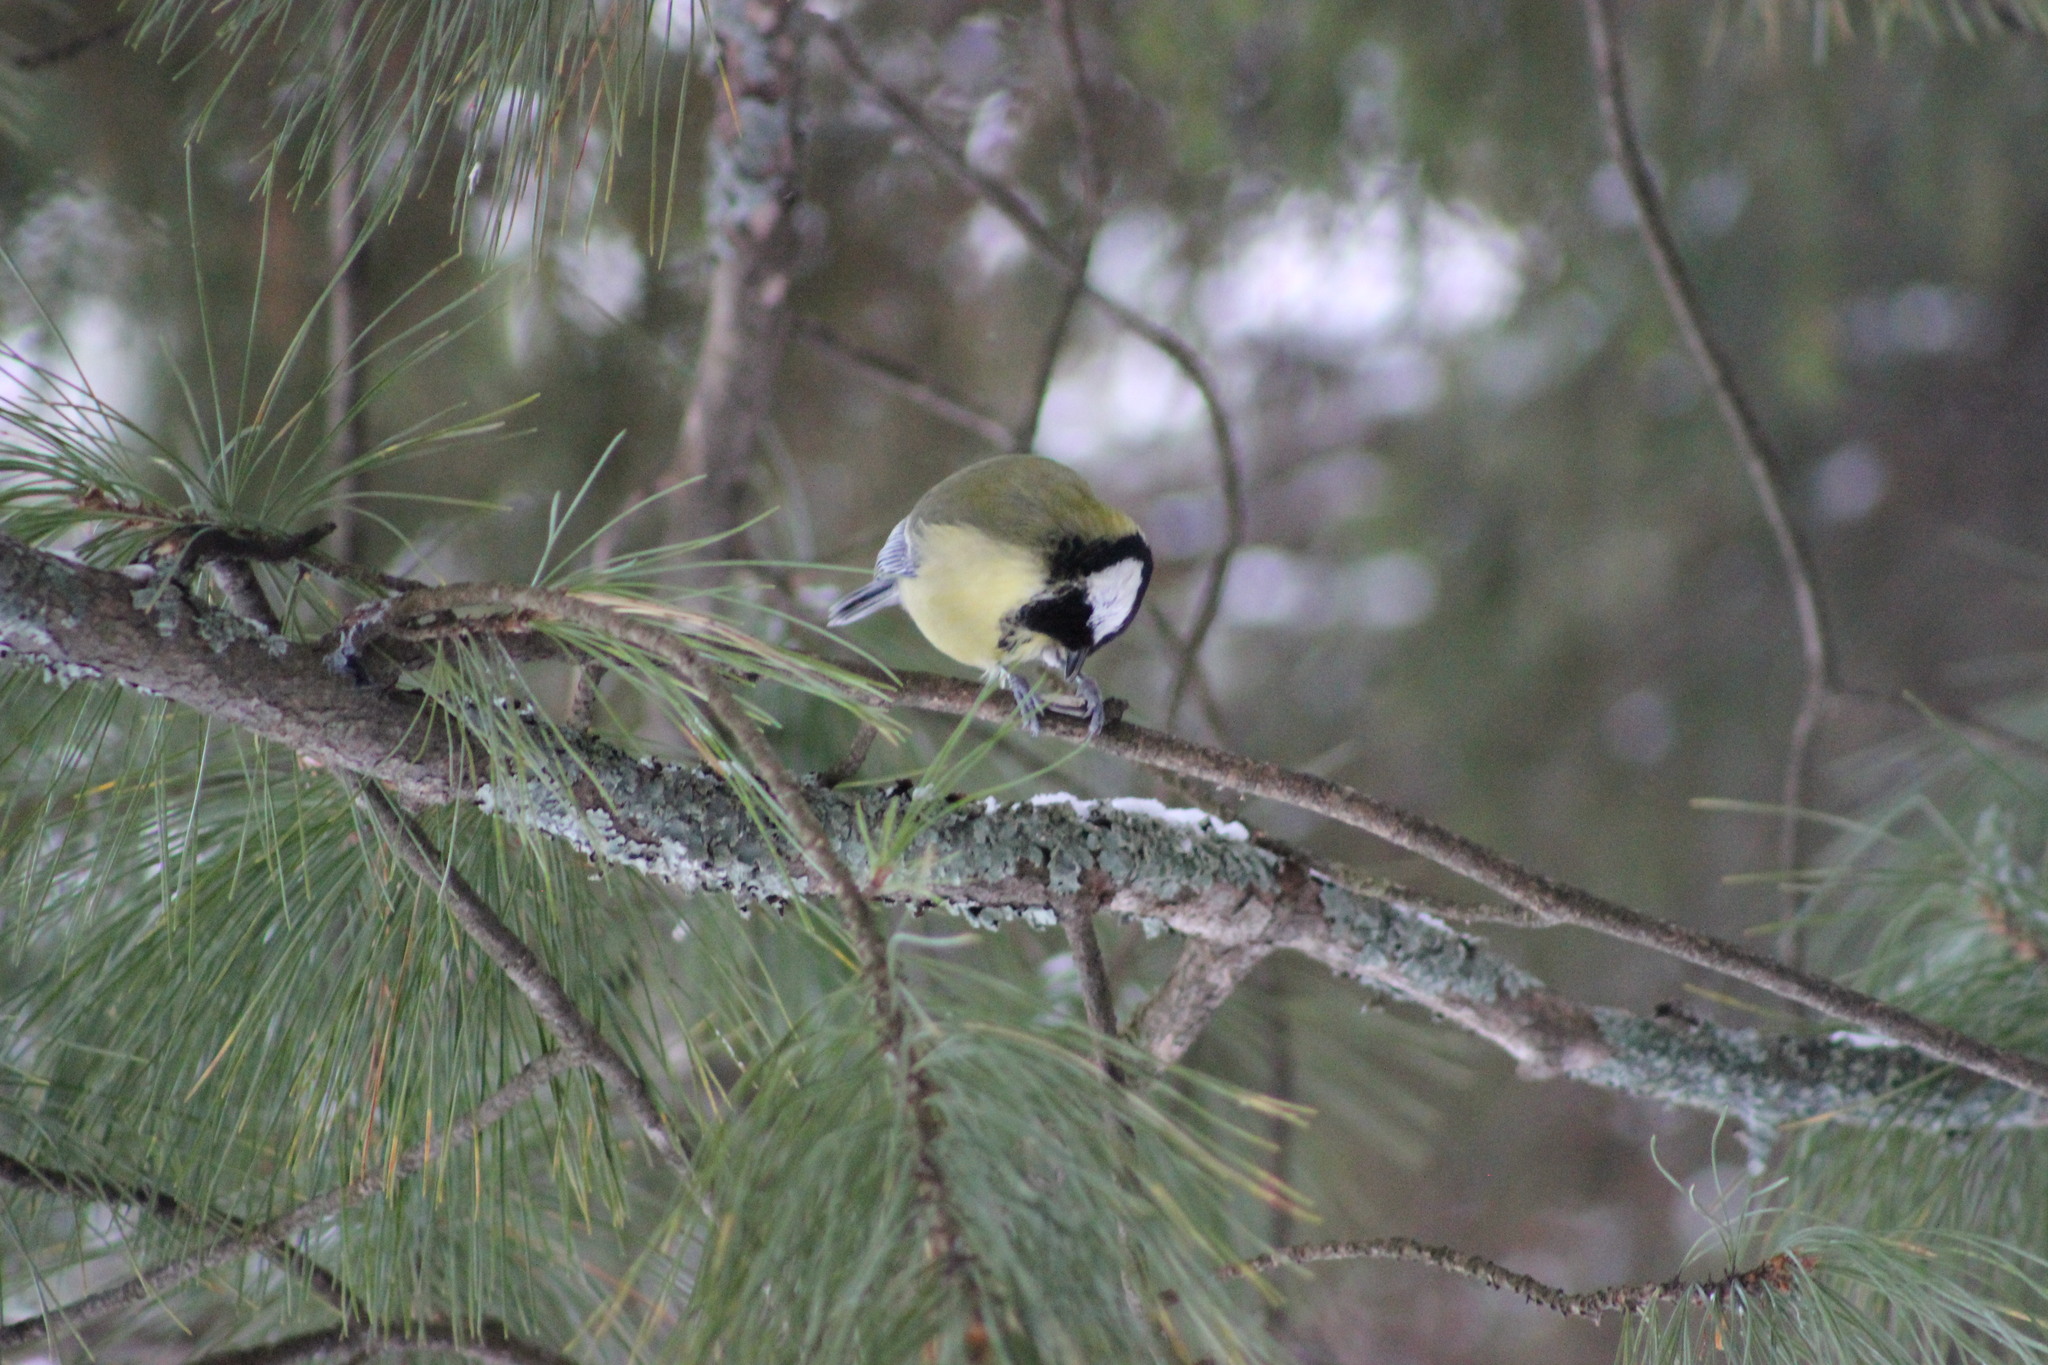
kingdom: Animalia
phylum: Chordata
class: Aves
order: Passeriformes
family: Paridae
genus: Parus
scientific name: Parus major
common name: Great tit
